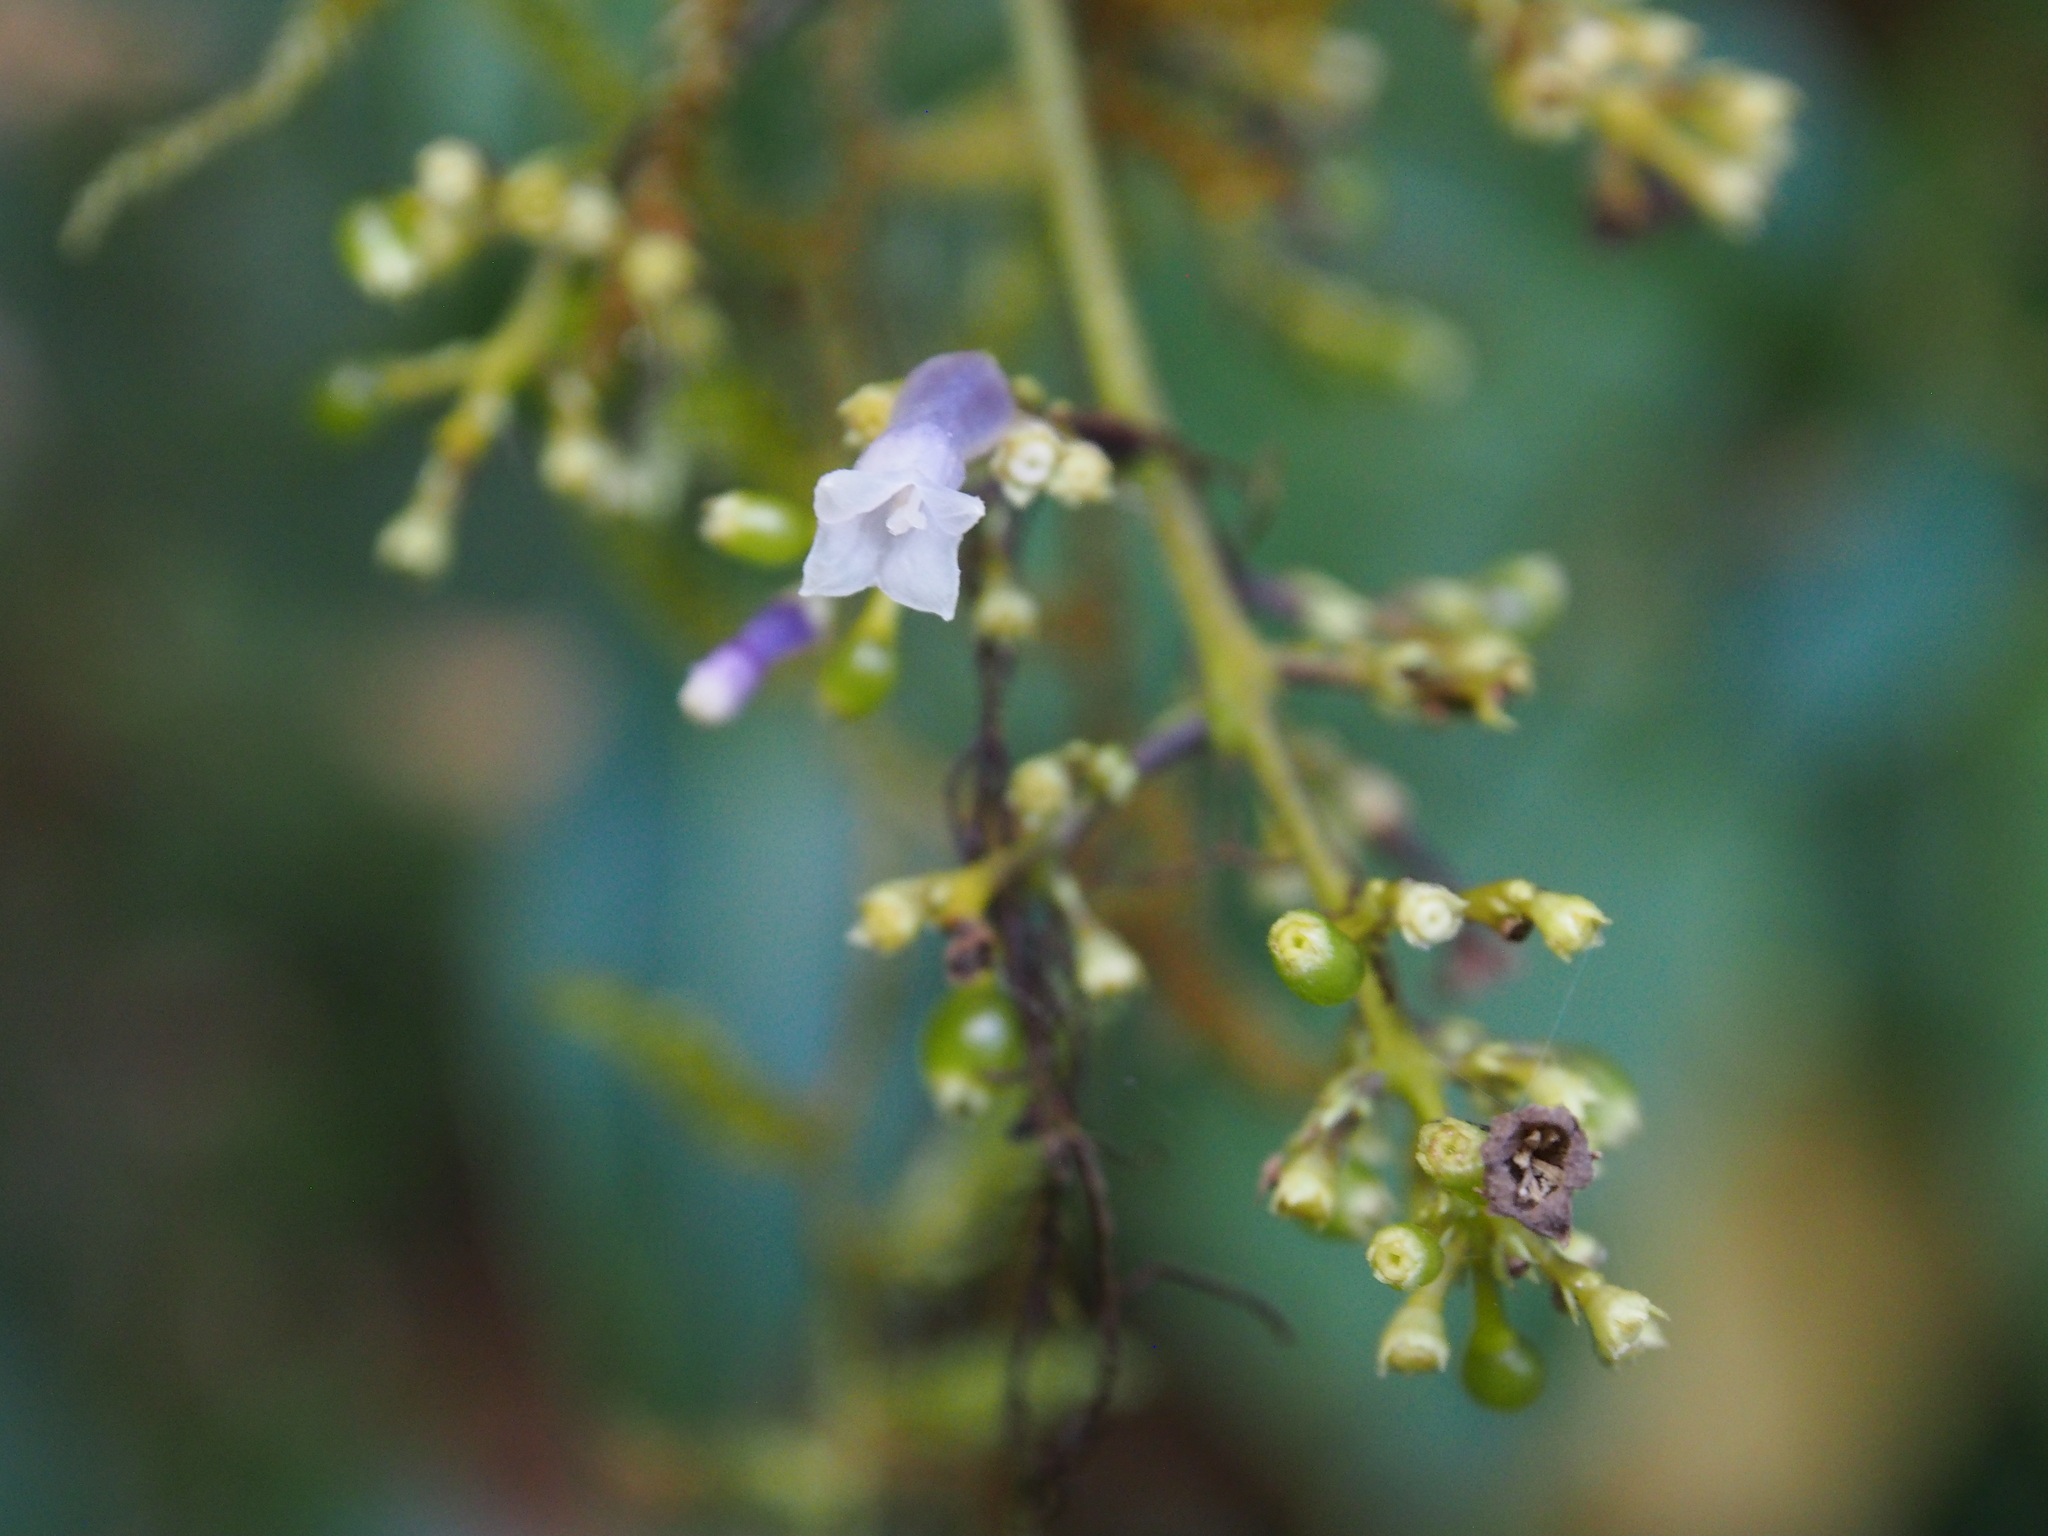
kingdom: Plantae
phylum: Tracheophyta
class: Magnoliopsida
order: Gentianales
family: Rubiaceae
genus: Palicourea
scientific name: Palicourea adusta
